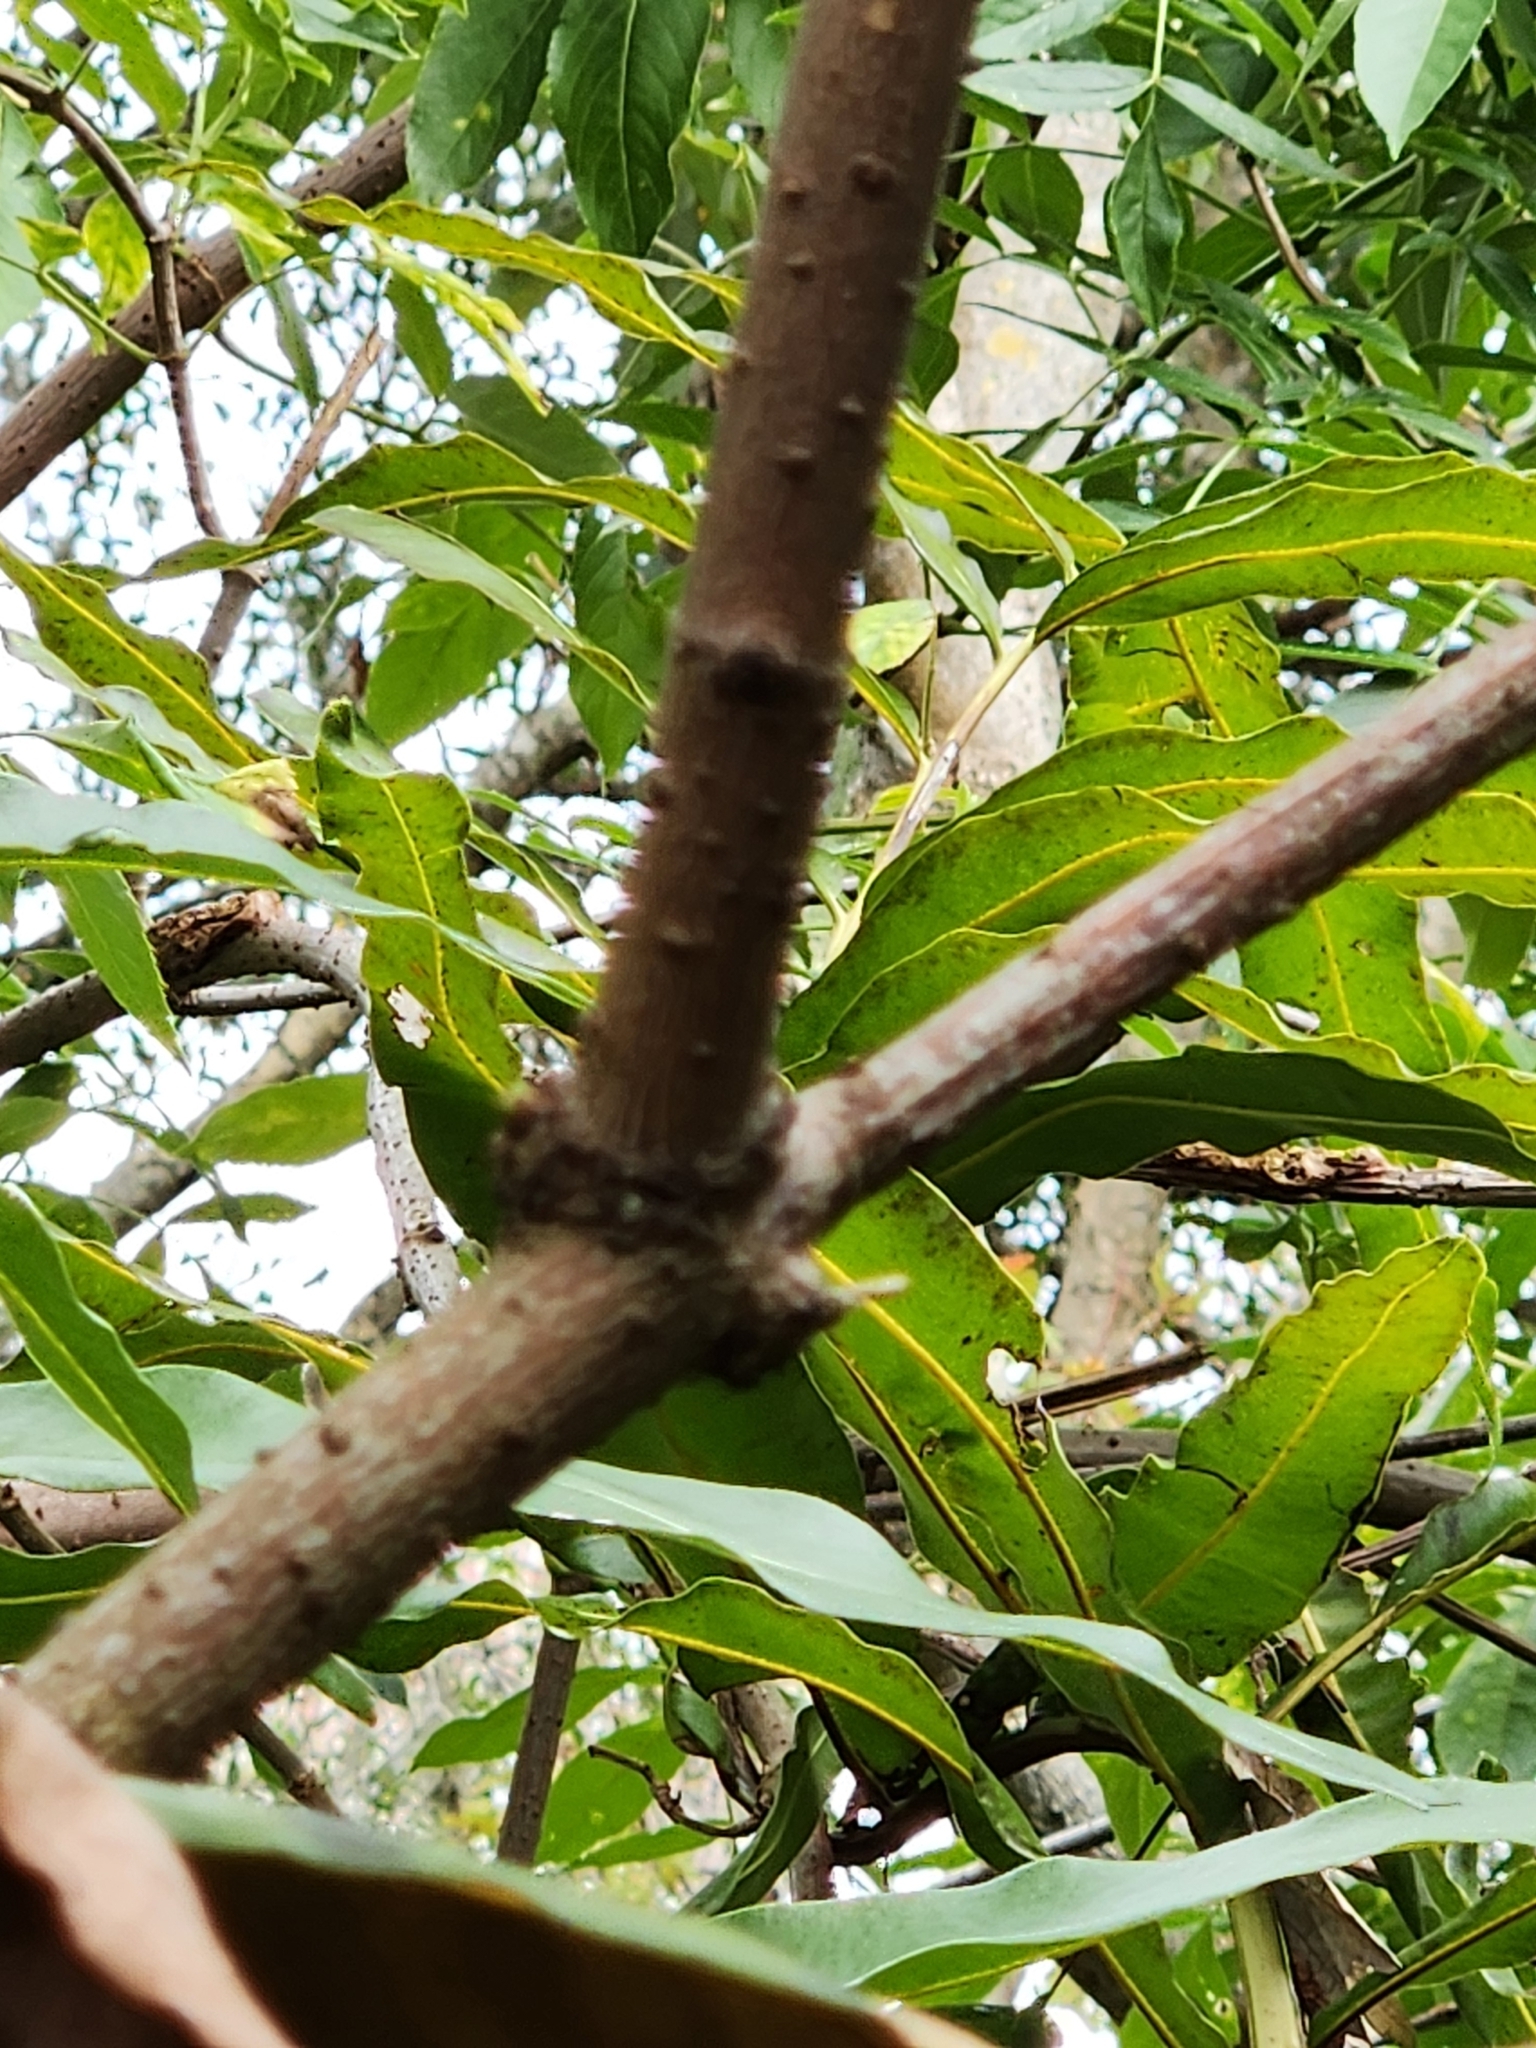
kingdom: Plantae
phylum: Tracheophyta
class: Magnoliopsida
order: Dipsacales
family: Viburnaceae
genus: Sambucus
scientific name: Sambucus canadensis
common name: American elder
